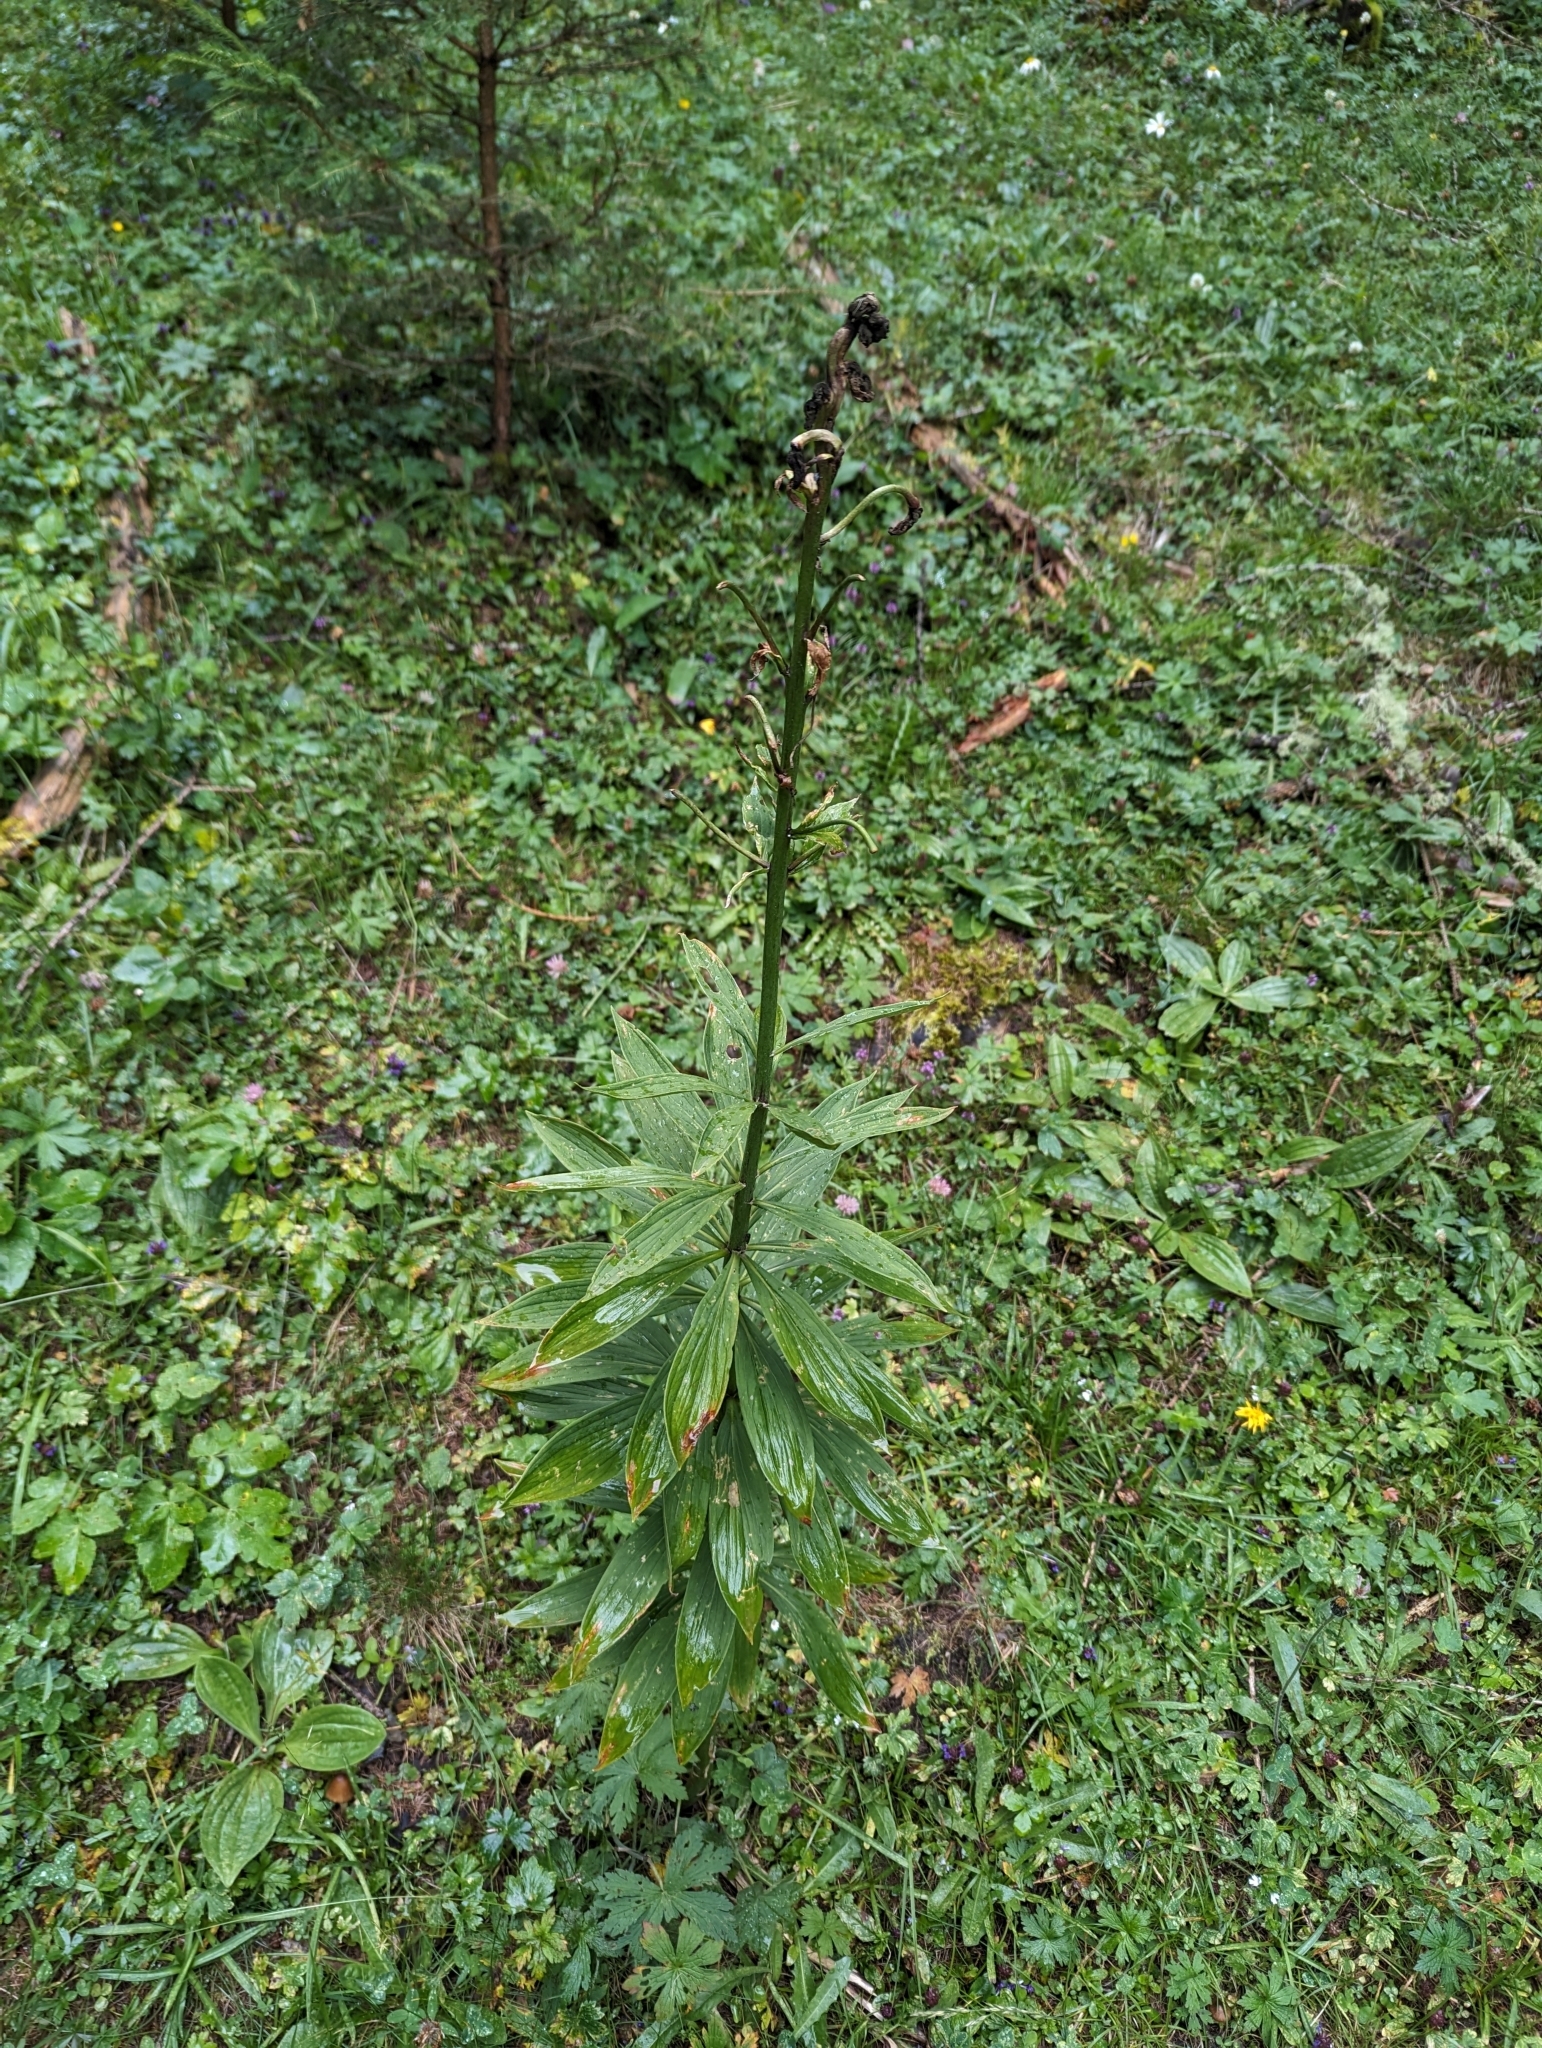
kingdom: Plantae
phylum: Tracheophyta
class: Liliopsida
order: Liliales
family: Liliaceae
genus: Lilium
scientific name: Lilium martagon
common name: Martagon lily
